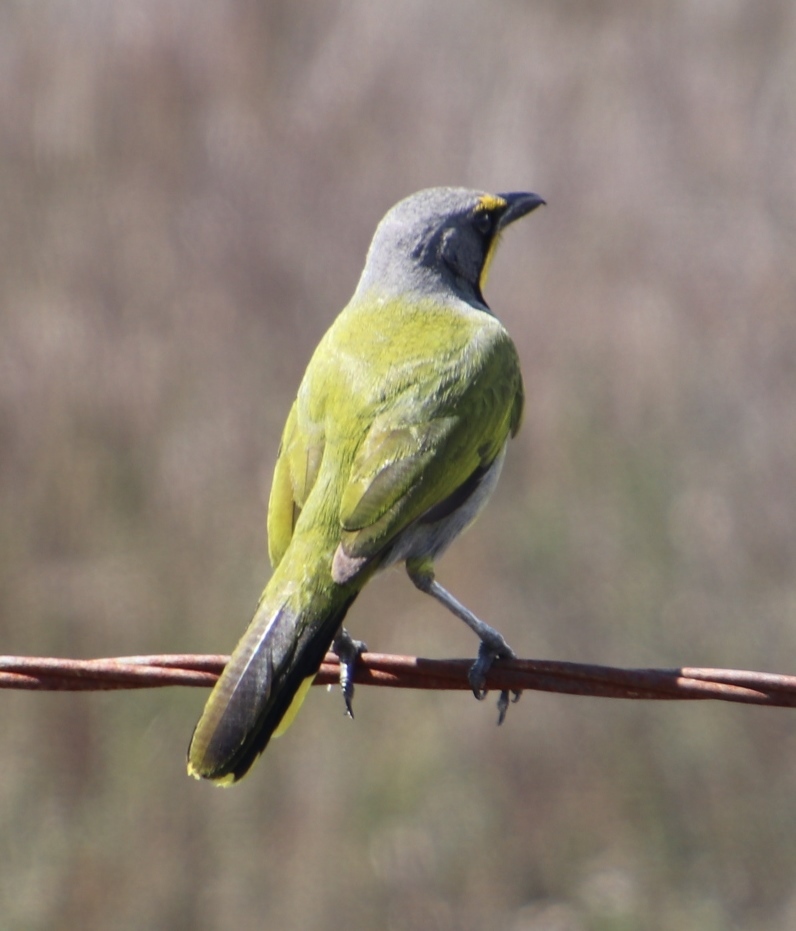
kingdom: Animalia
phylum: Chordata
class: Aves
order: Passeriformes
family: Malaconotidae
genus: Telophorus
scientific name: Telophorus zeylonus
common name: Bokmakierie
